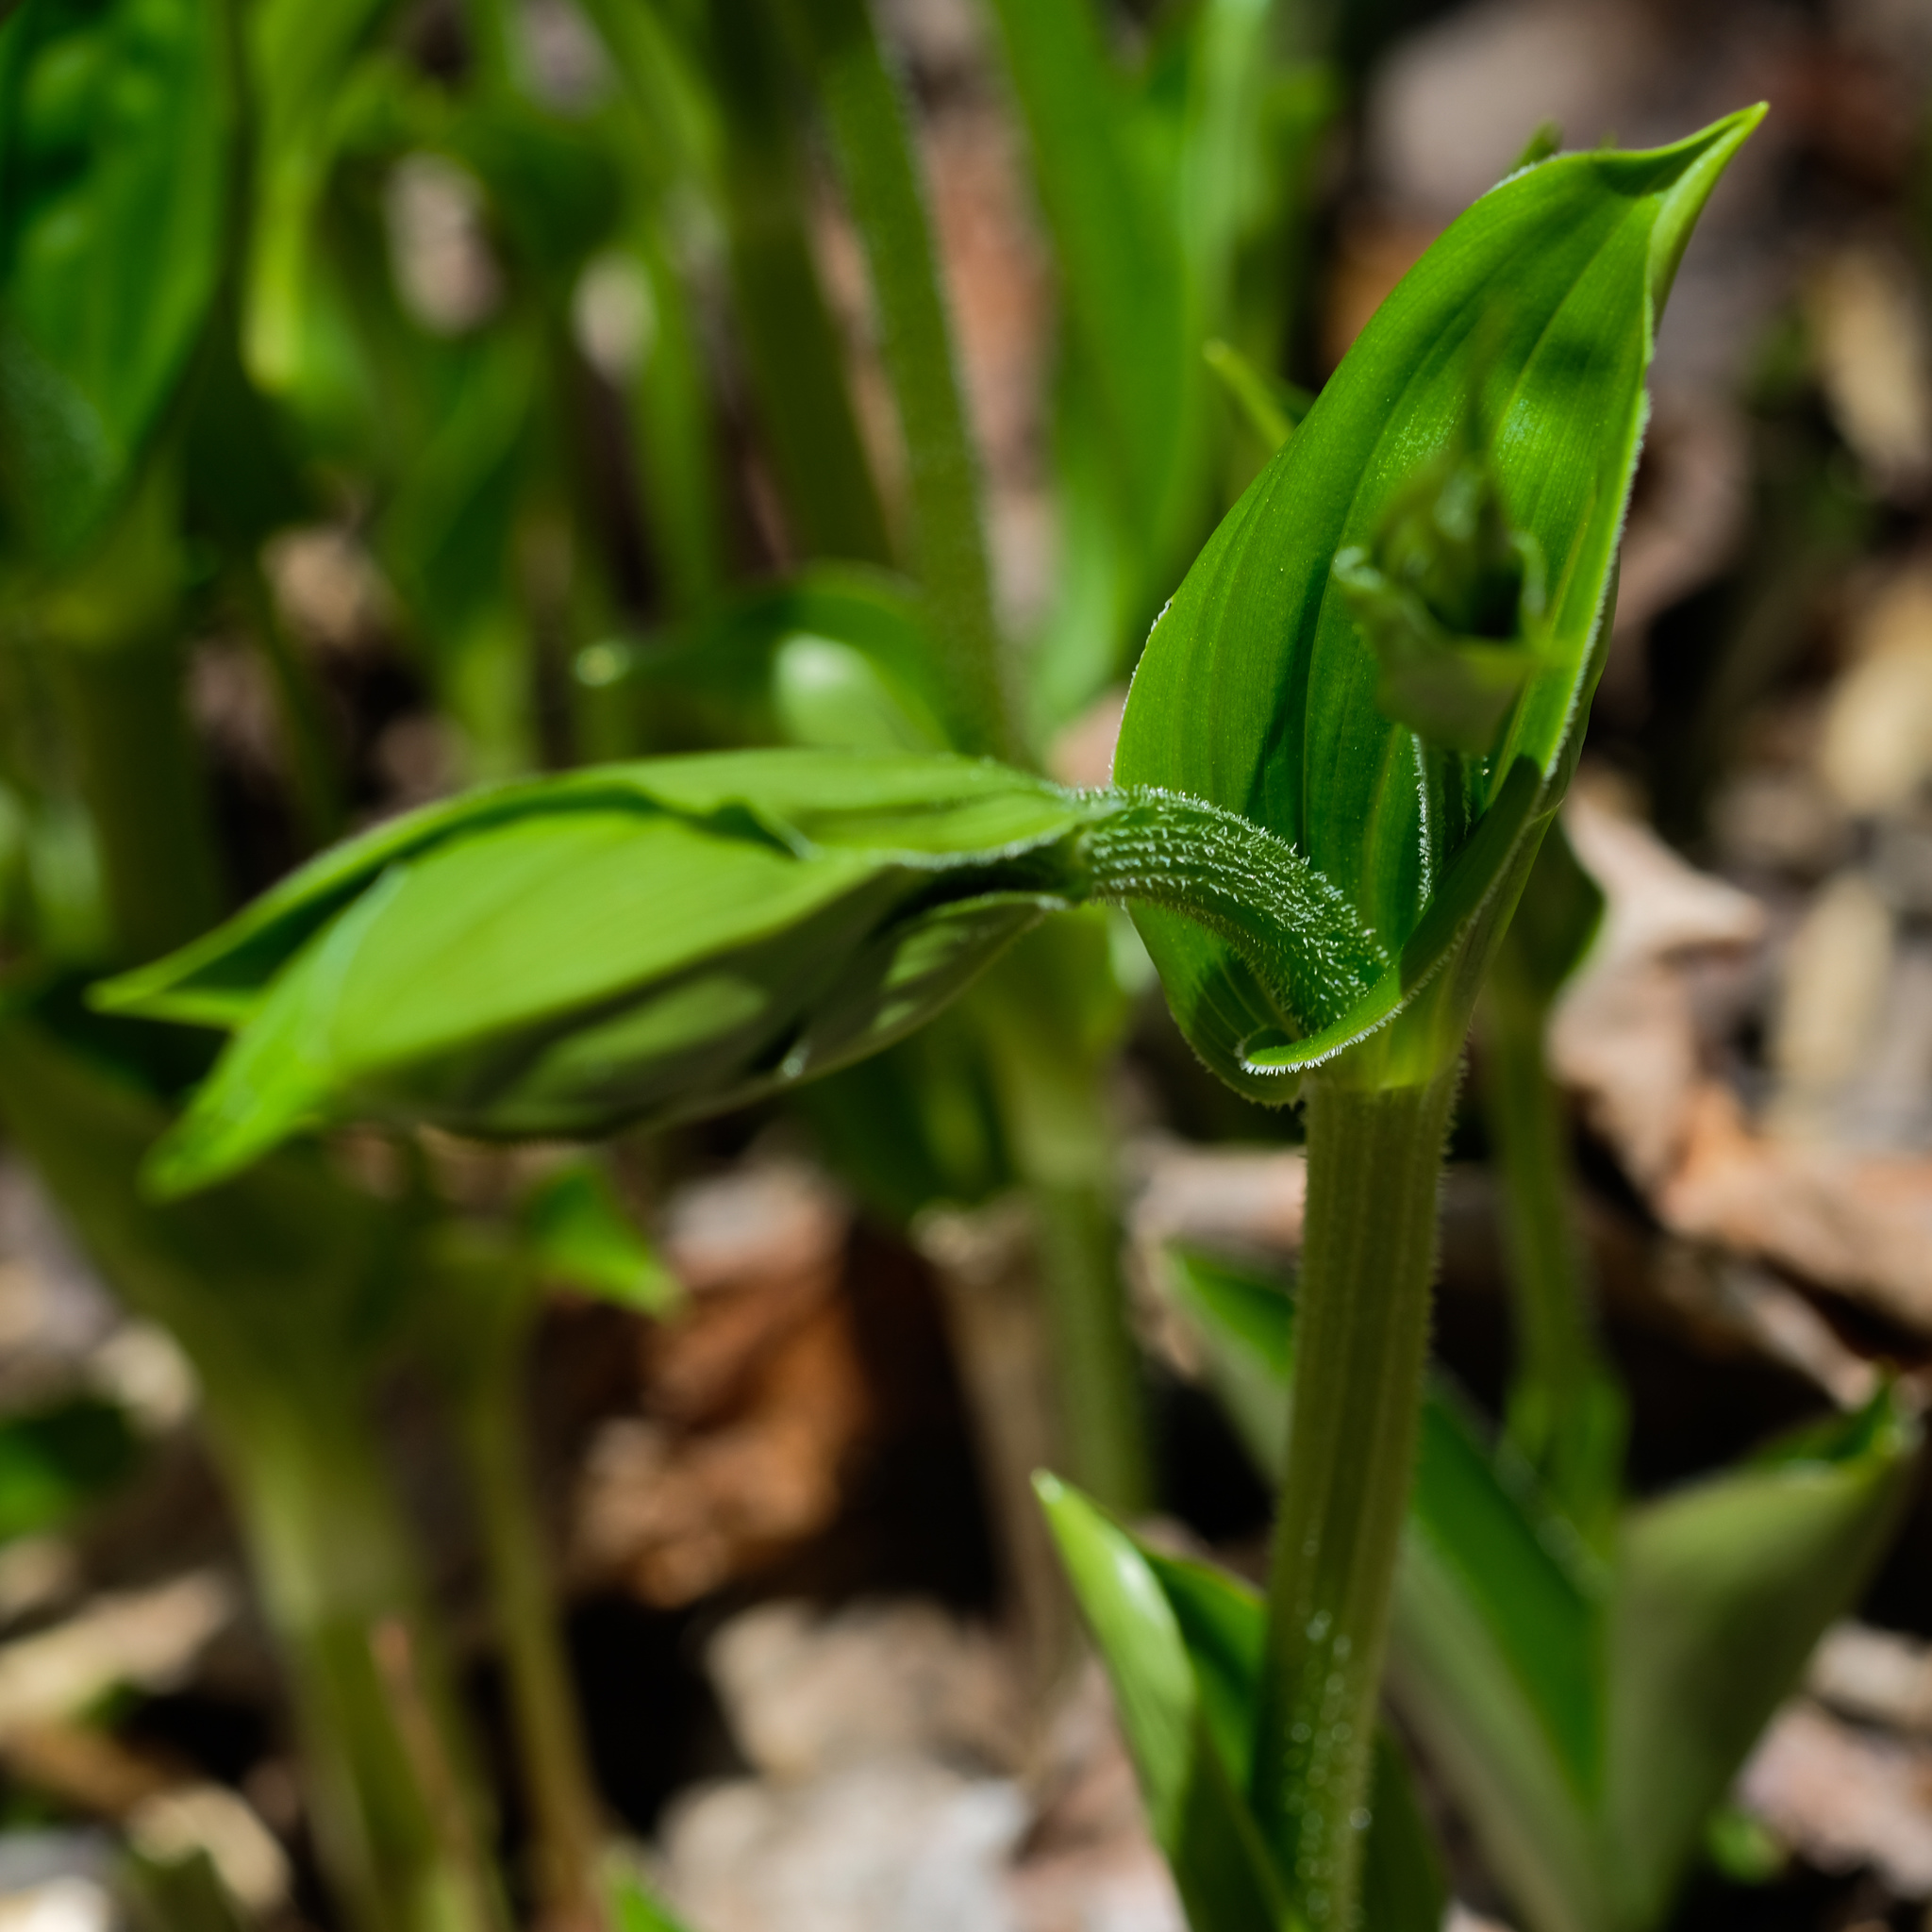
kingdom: Plantae
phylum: Tracheophyta
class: Liliopsida
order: Liliales
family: Liliaceae
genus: Streptopus
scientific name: Streptopus lanceolatus
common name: Rose mandarin
